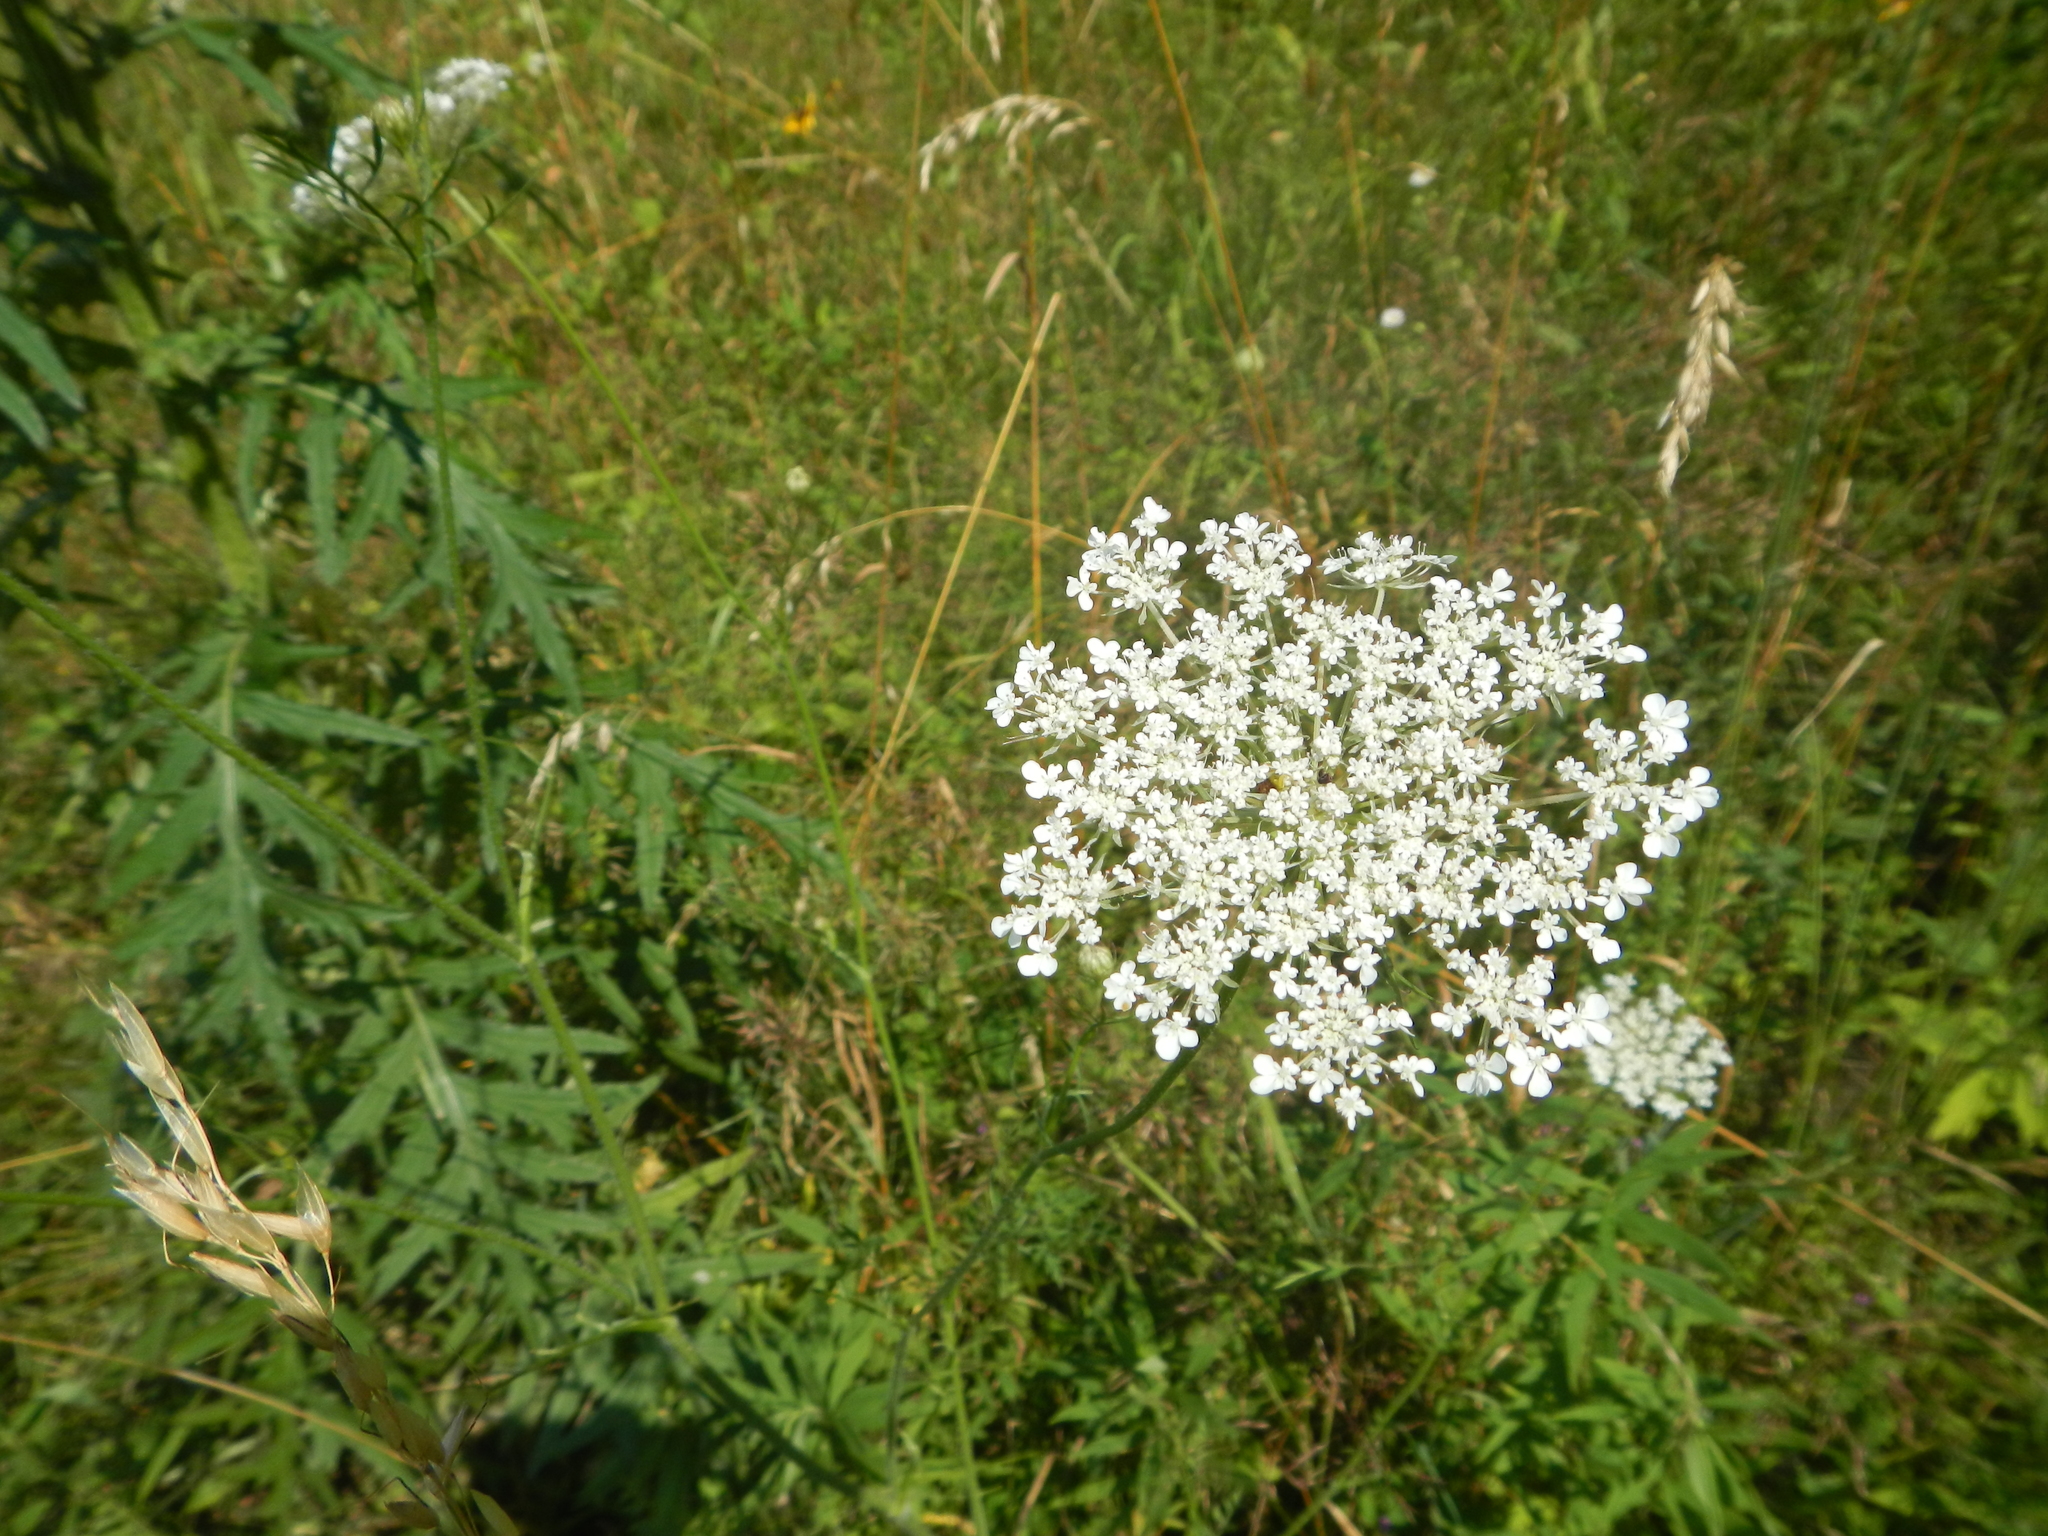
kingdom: Plantae
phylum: Tracheophyta
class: Magnoliopsida
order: Apiales
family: Apiaceae
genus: Daucus
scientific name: Daucus carota
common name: Wild carrot
